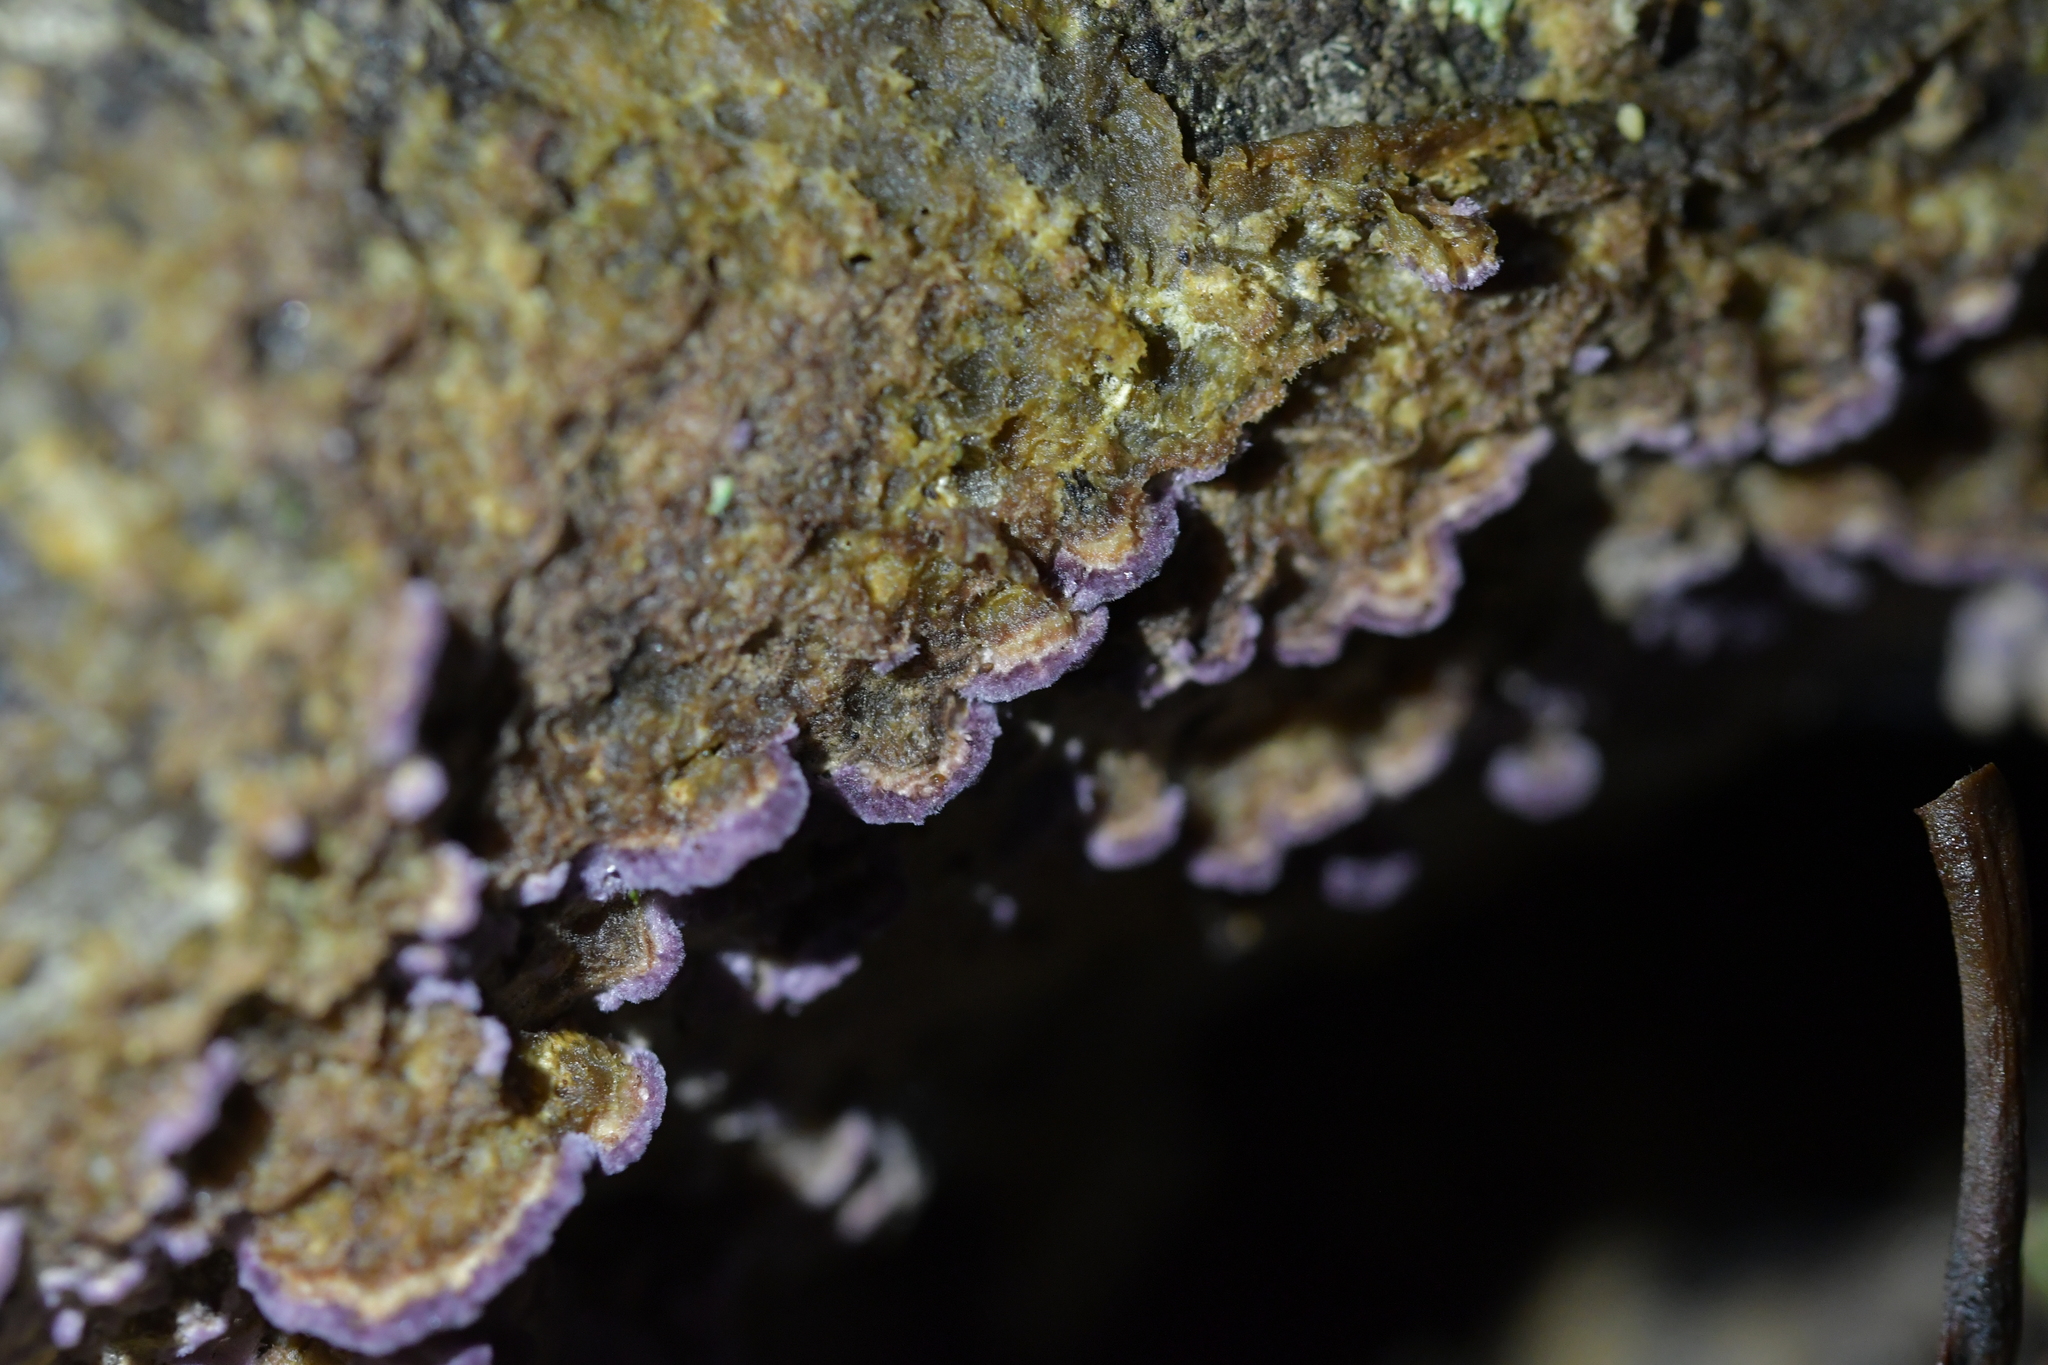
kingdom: Fungi
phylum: Basidiomycota
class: Agaricomycetes
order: Agaricales
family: Cyphellaceae
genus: Chondrostereum
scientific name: Chondrostereum purpureum
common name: Silver leaf disease
